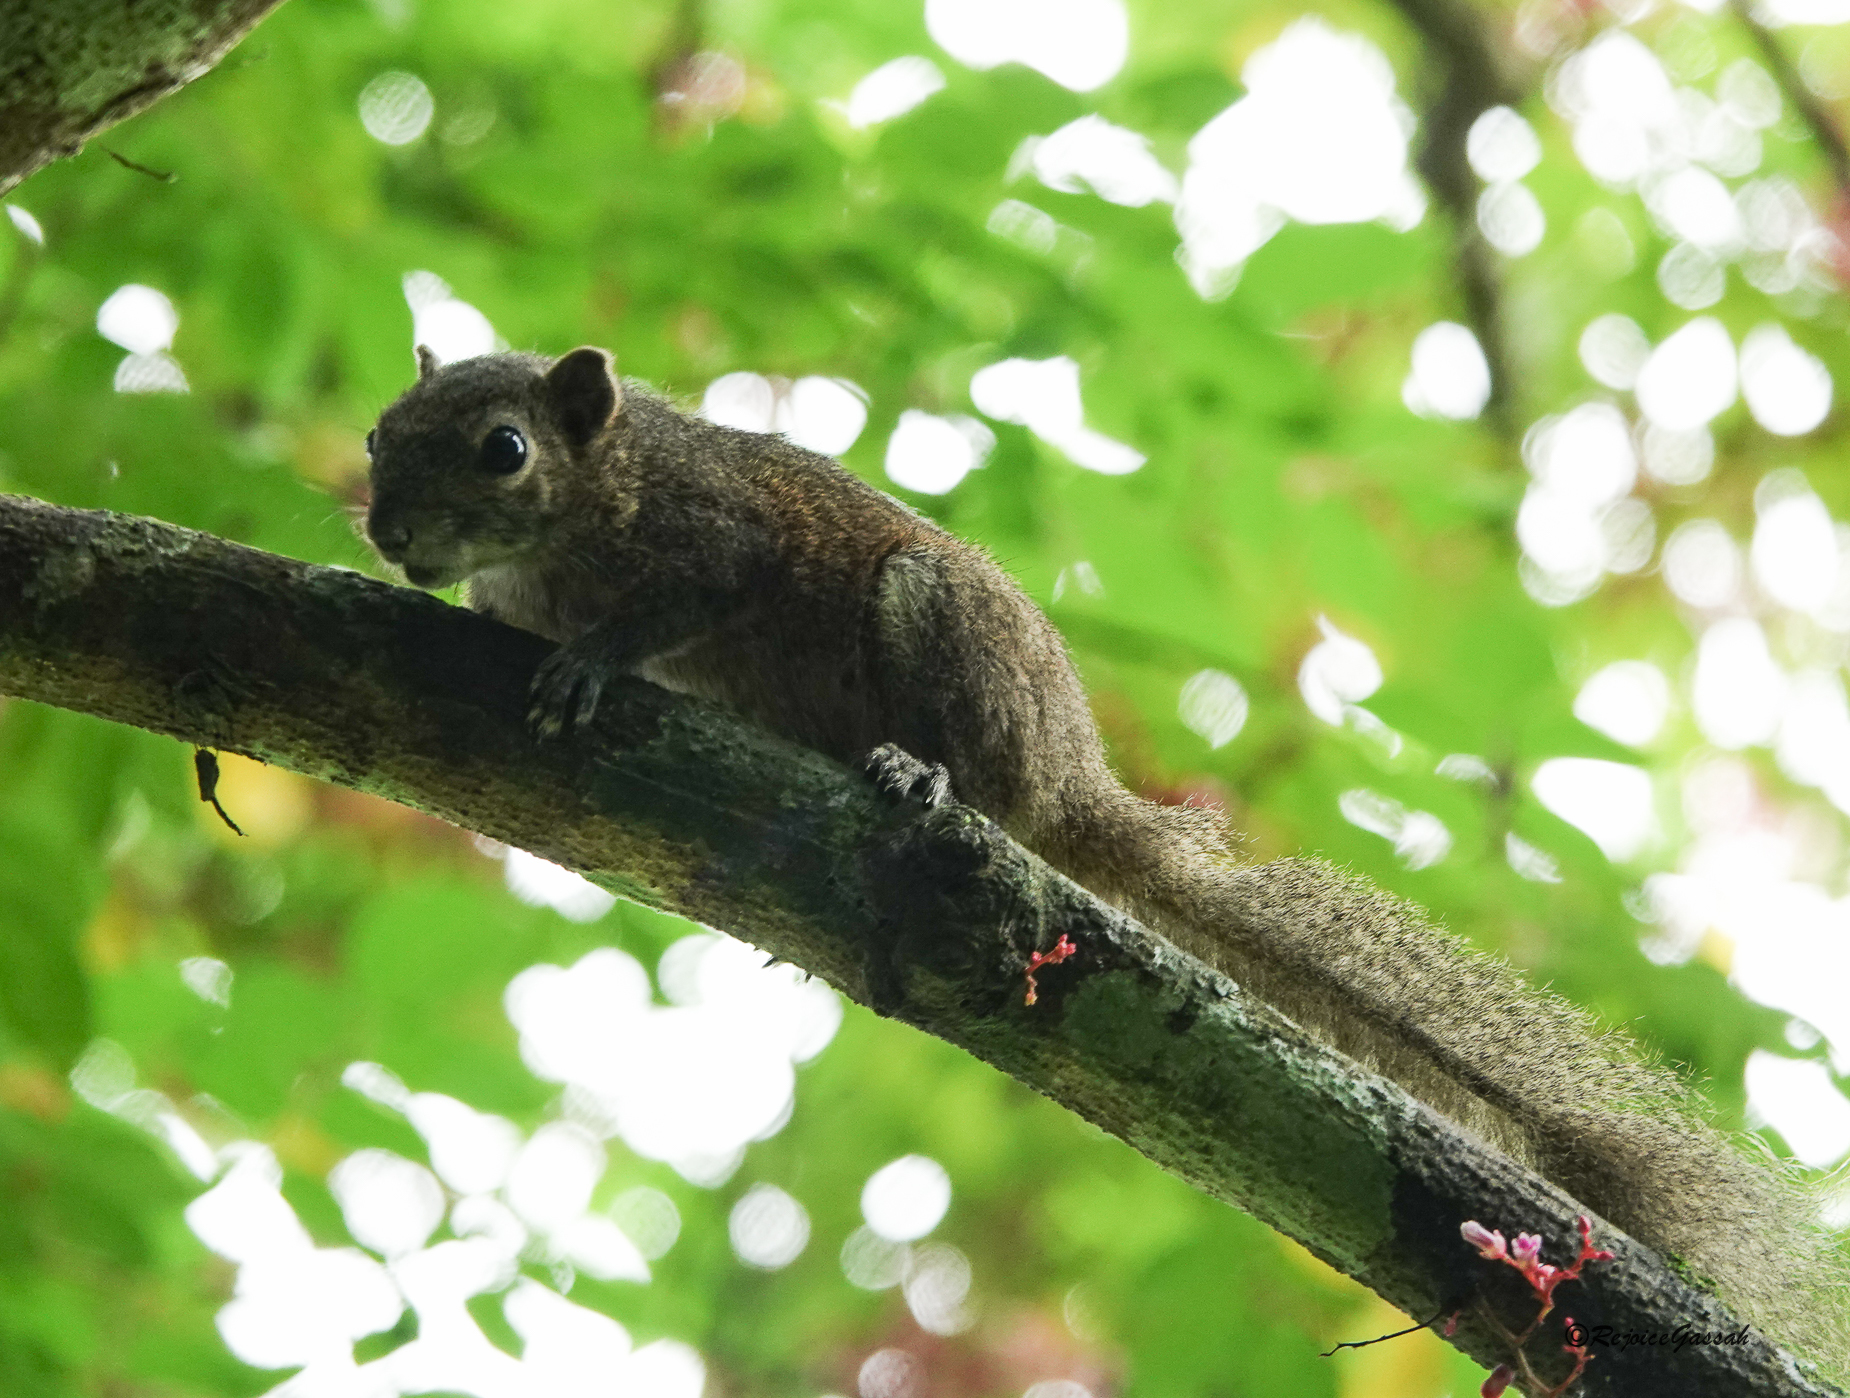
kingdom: Animalia
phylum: Chordata
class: Mammalia
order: Rodentia
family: Sciuridae
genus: Callosciurus
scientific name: Callosciurus pygerythrus
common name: Irrawaddy squirrel
